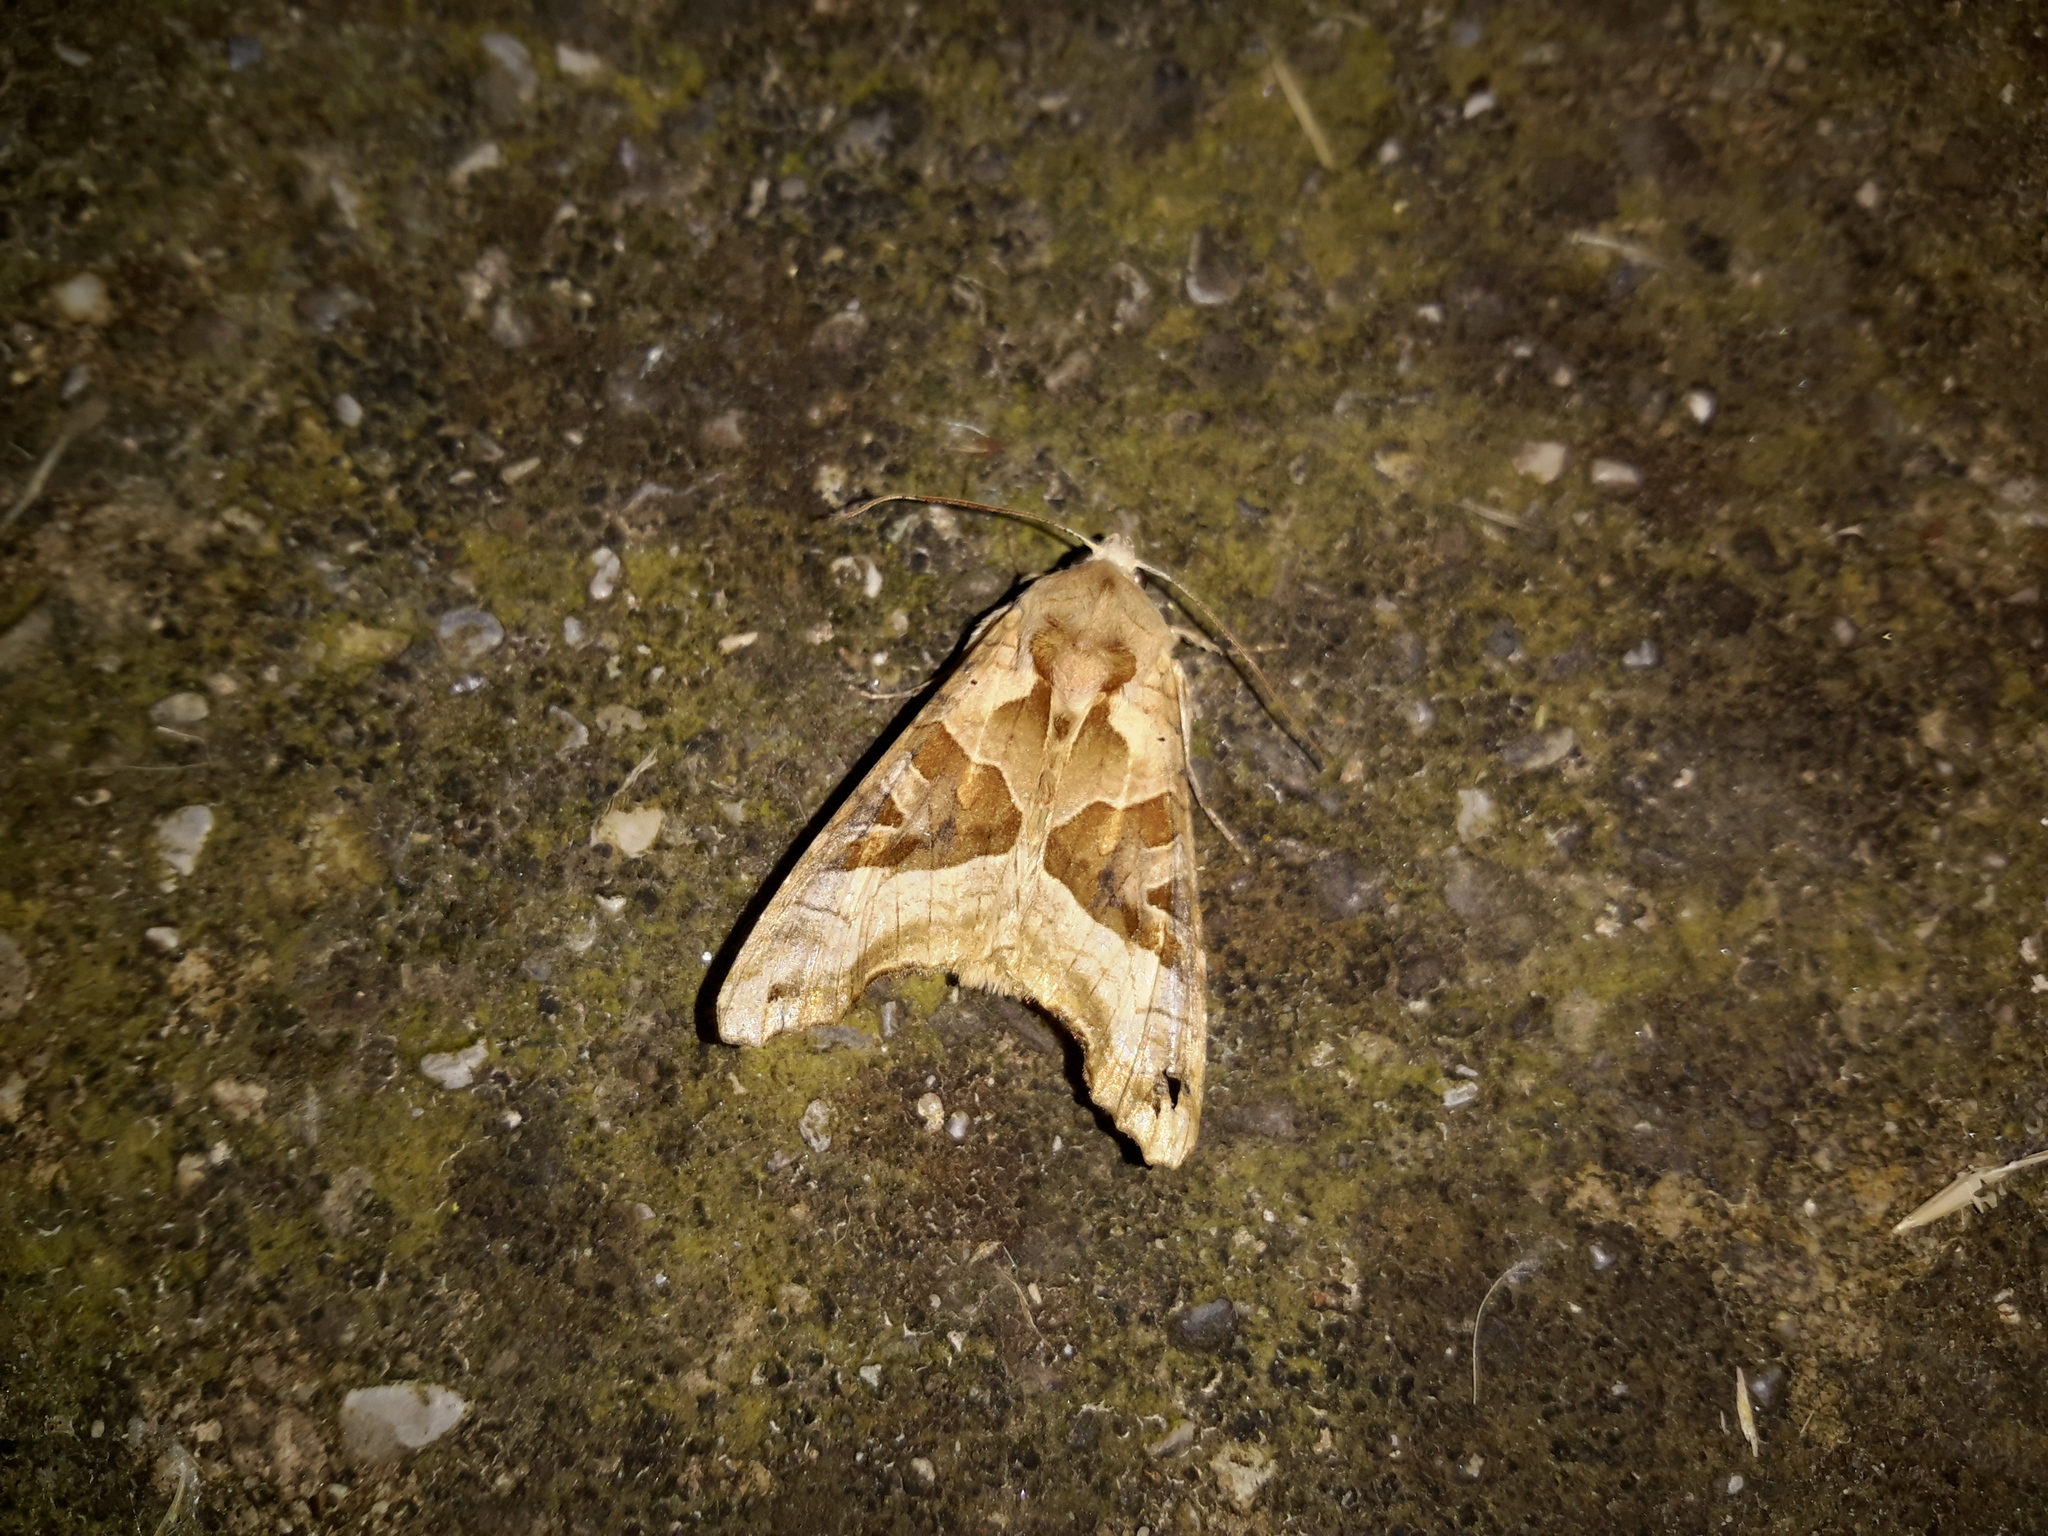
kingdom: Animalia
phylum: Arthropoda
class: Insecta
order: Lepidoptera
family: Noctuidae
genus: Phlogophora
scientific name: Phlogophora meticulosa
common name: Angle shades
